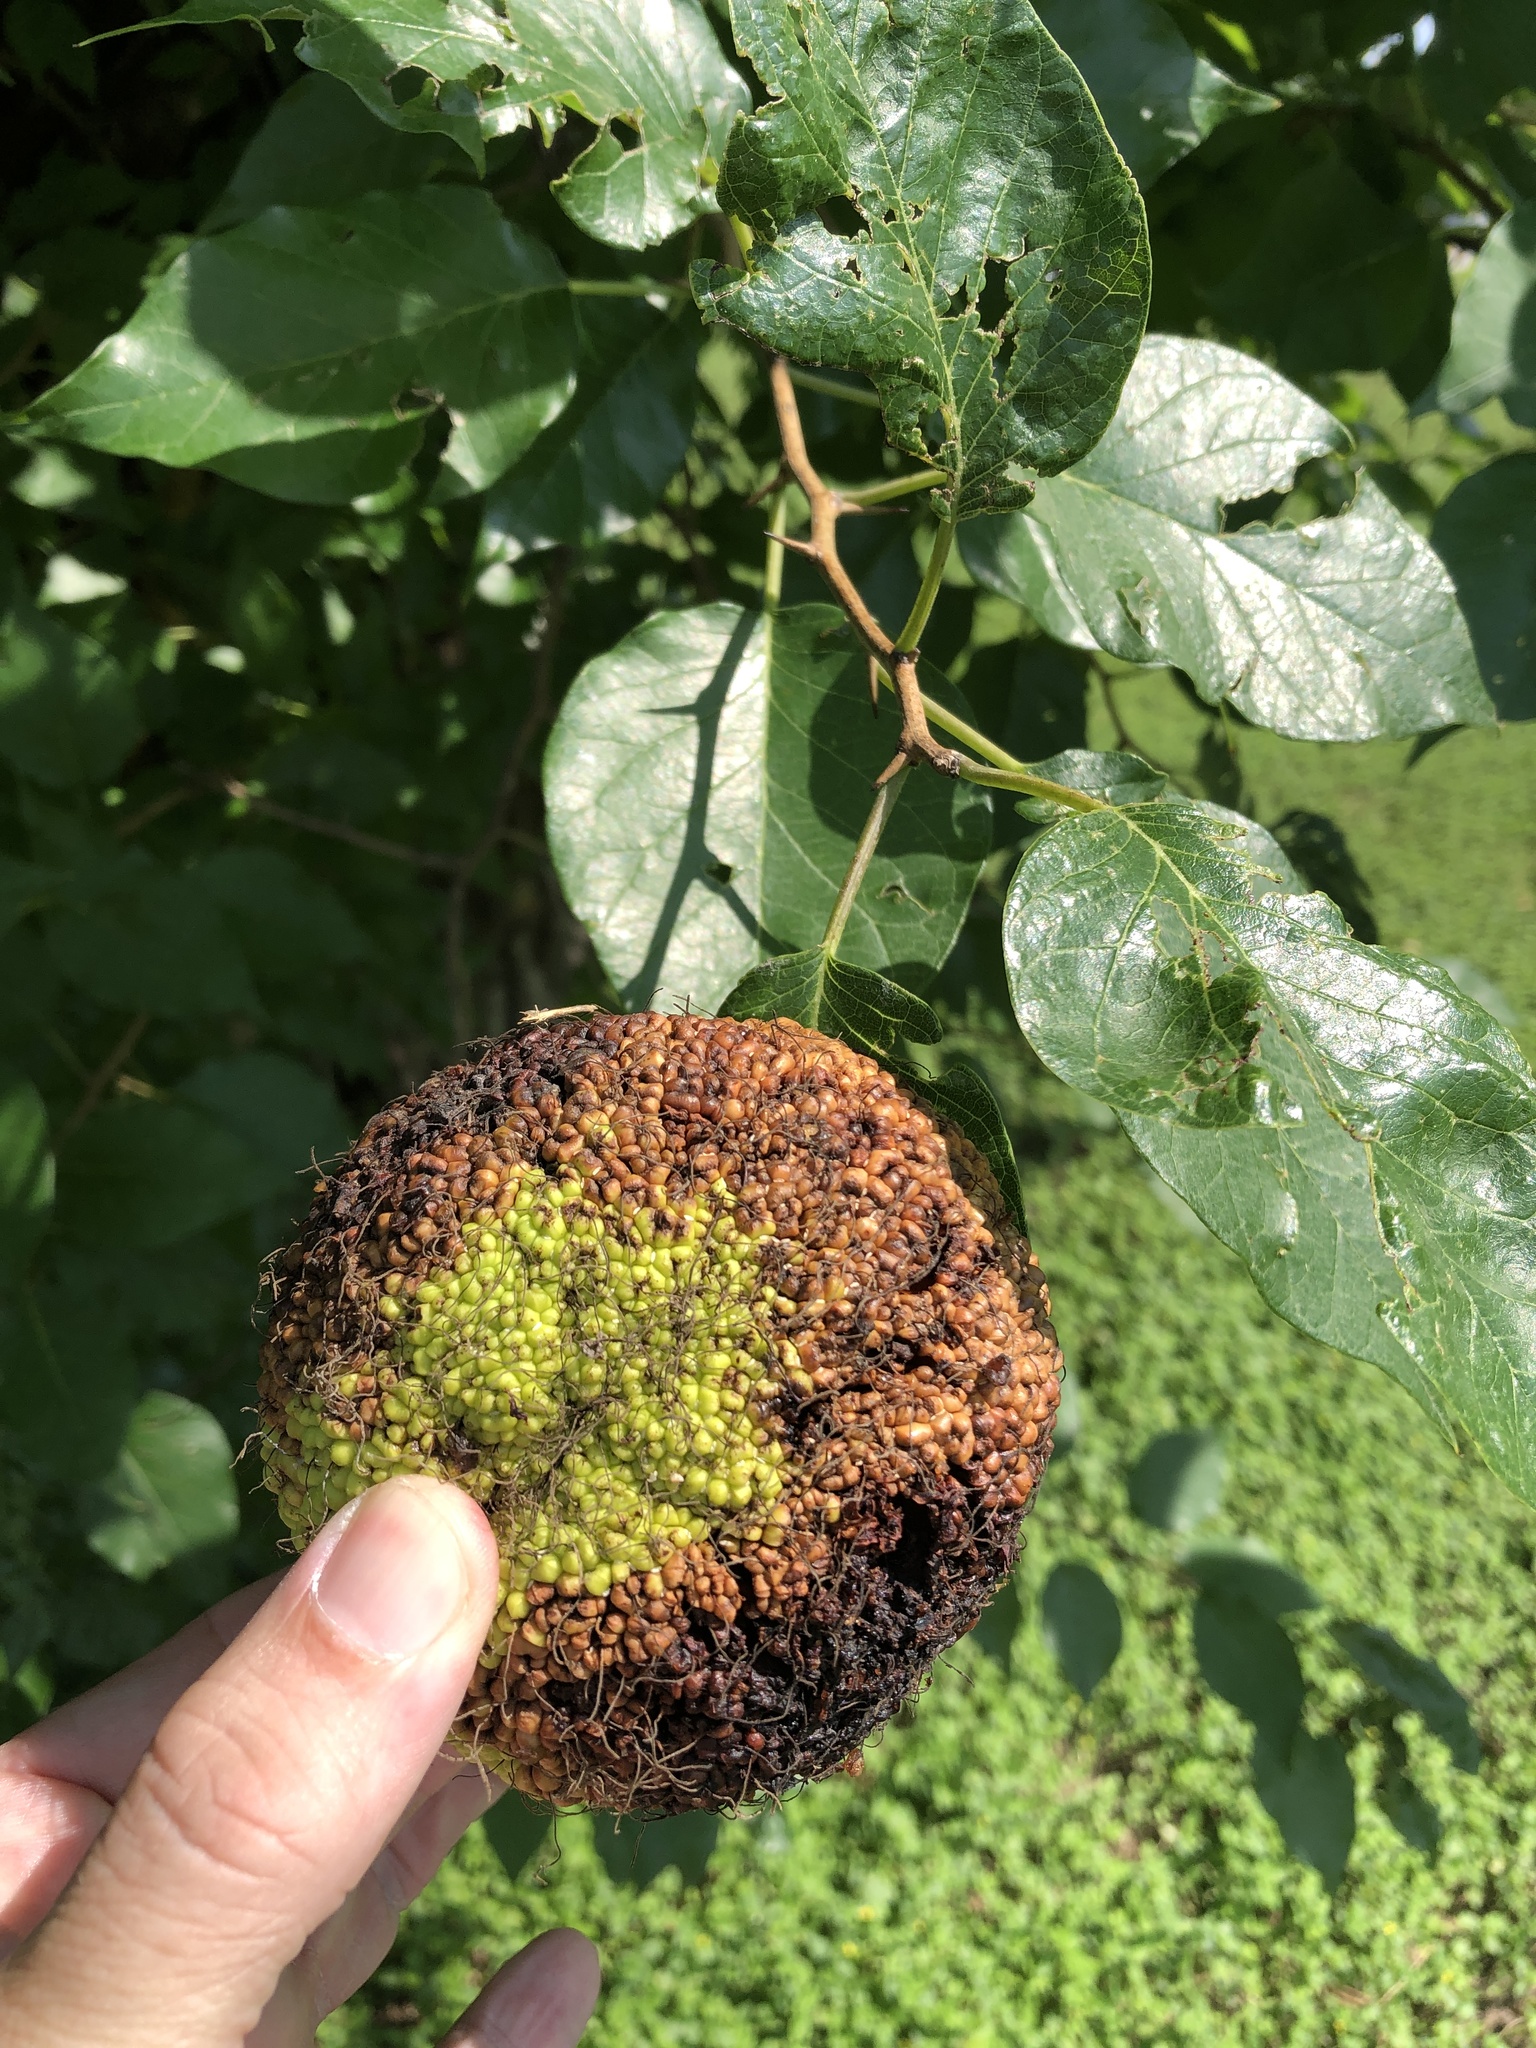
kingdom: Plantae
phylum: Tracheophyta
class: Magnoliopsida
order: Rosales
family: Moraceae
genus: Maclura
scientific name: Maclura pomifera
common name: Osage-orange
